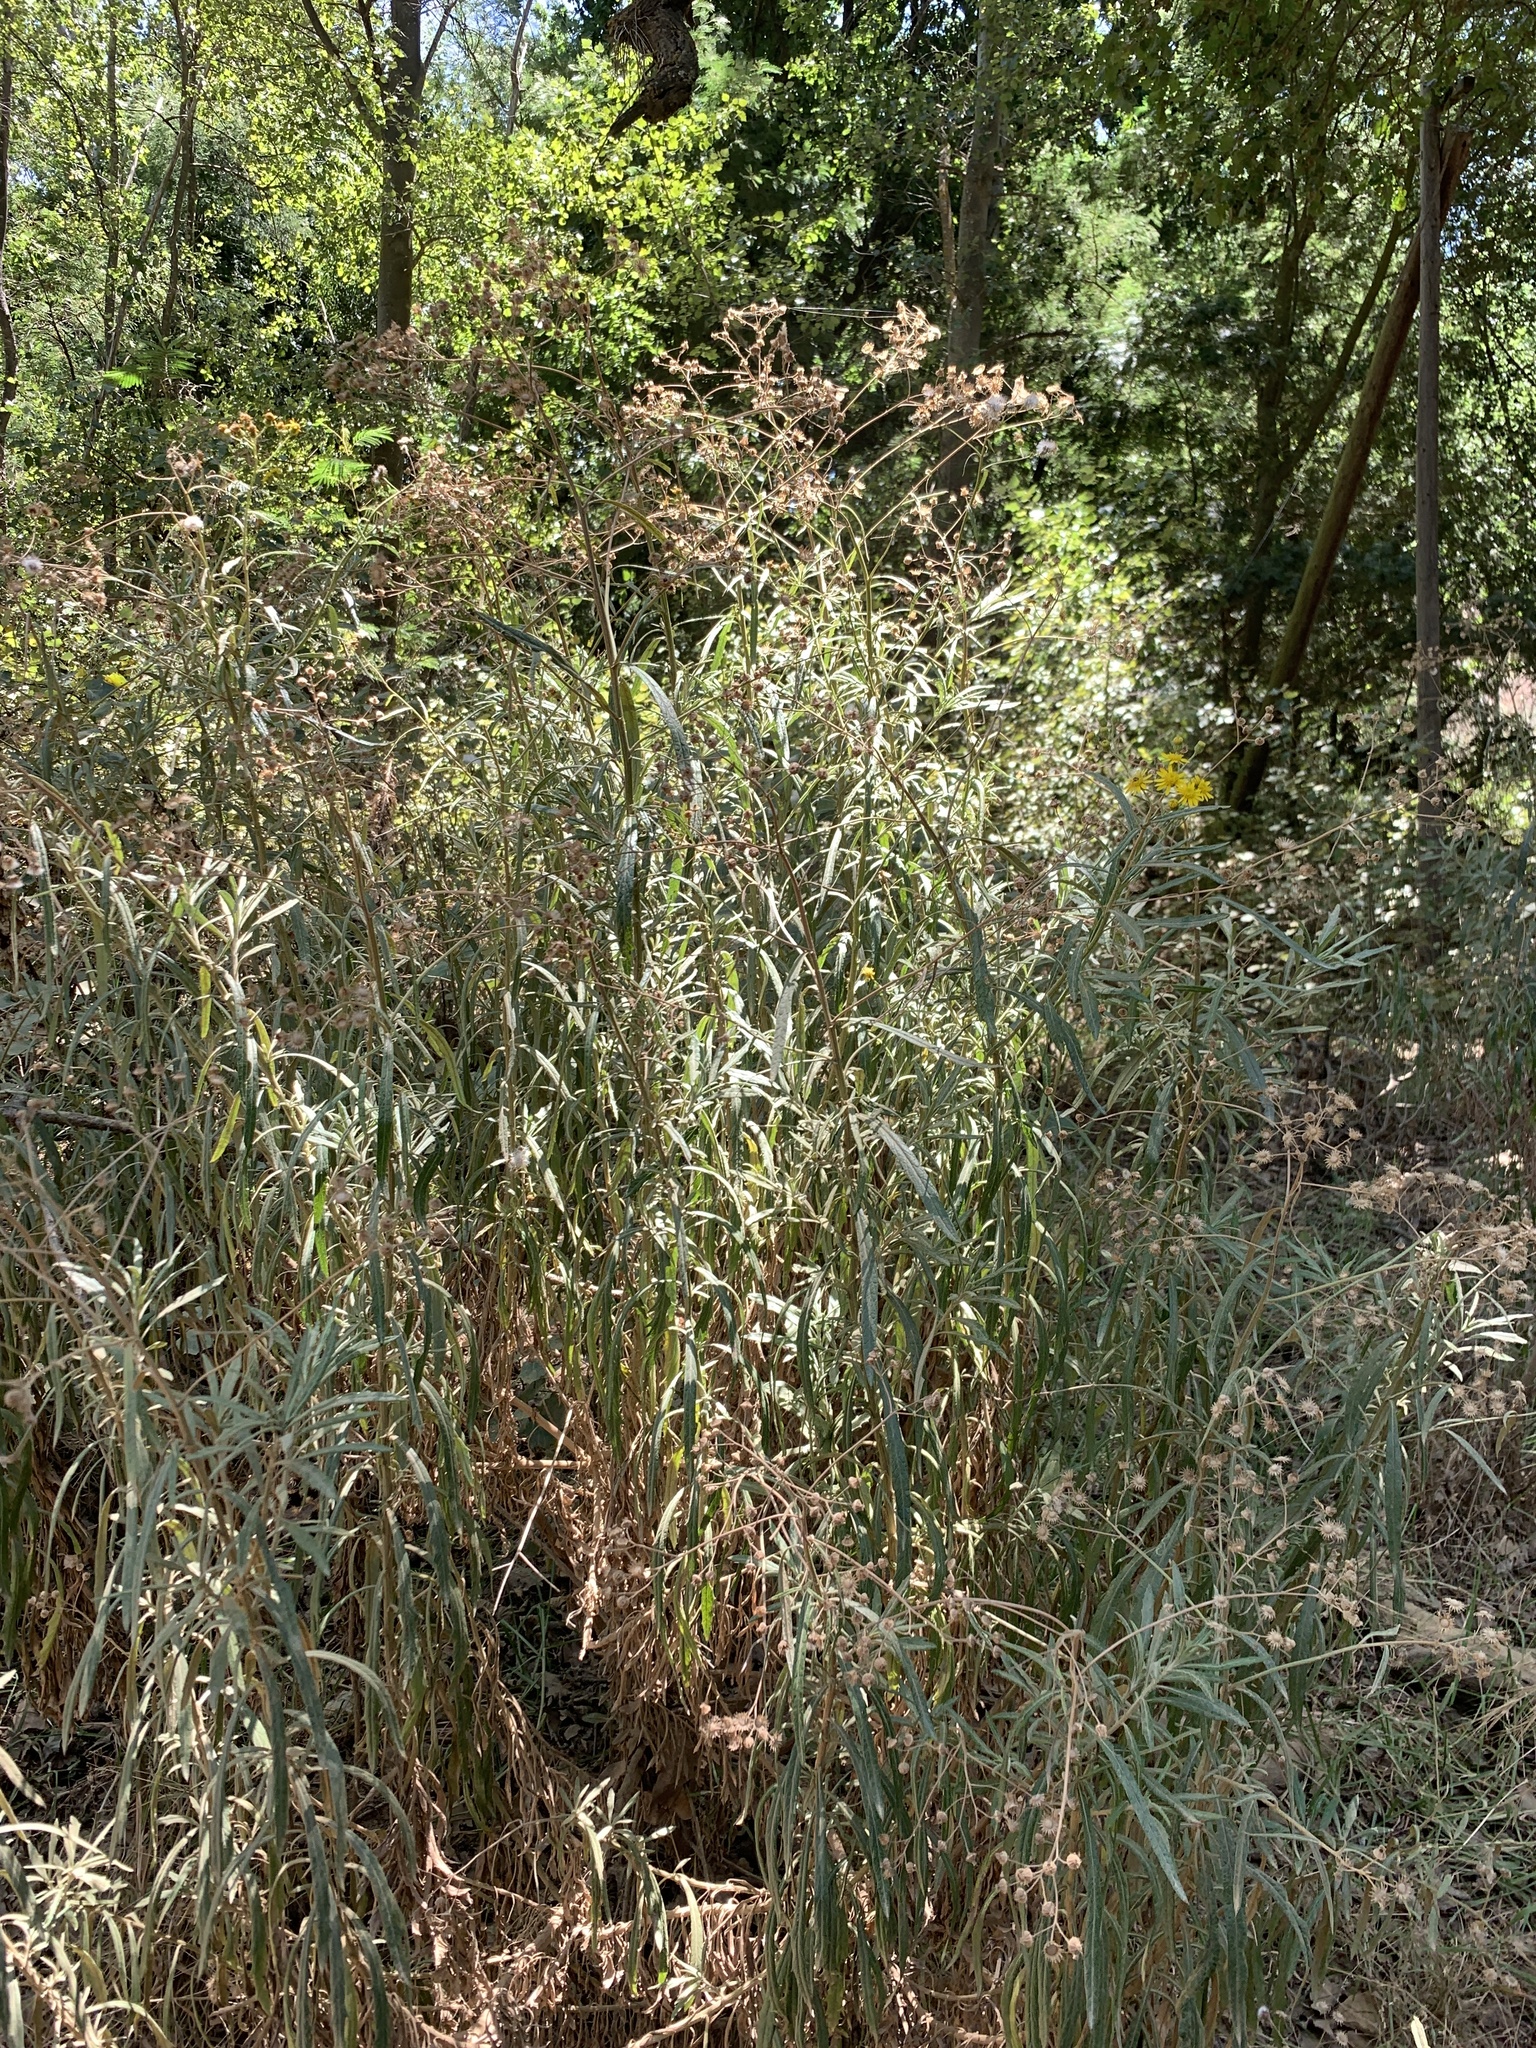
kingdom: Plantae
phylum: Tracheophyta
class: Magnoliopsida
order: Asterales
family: Asteraceae
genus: Senecio
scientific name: Senecio pterophorus
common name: Shoddy ragwort
